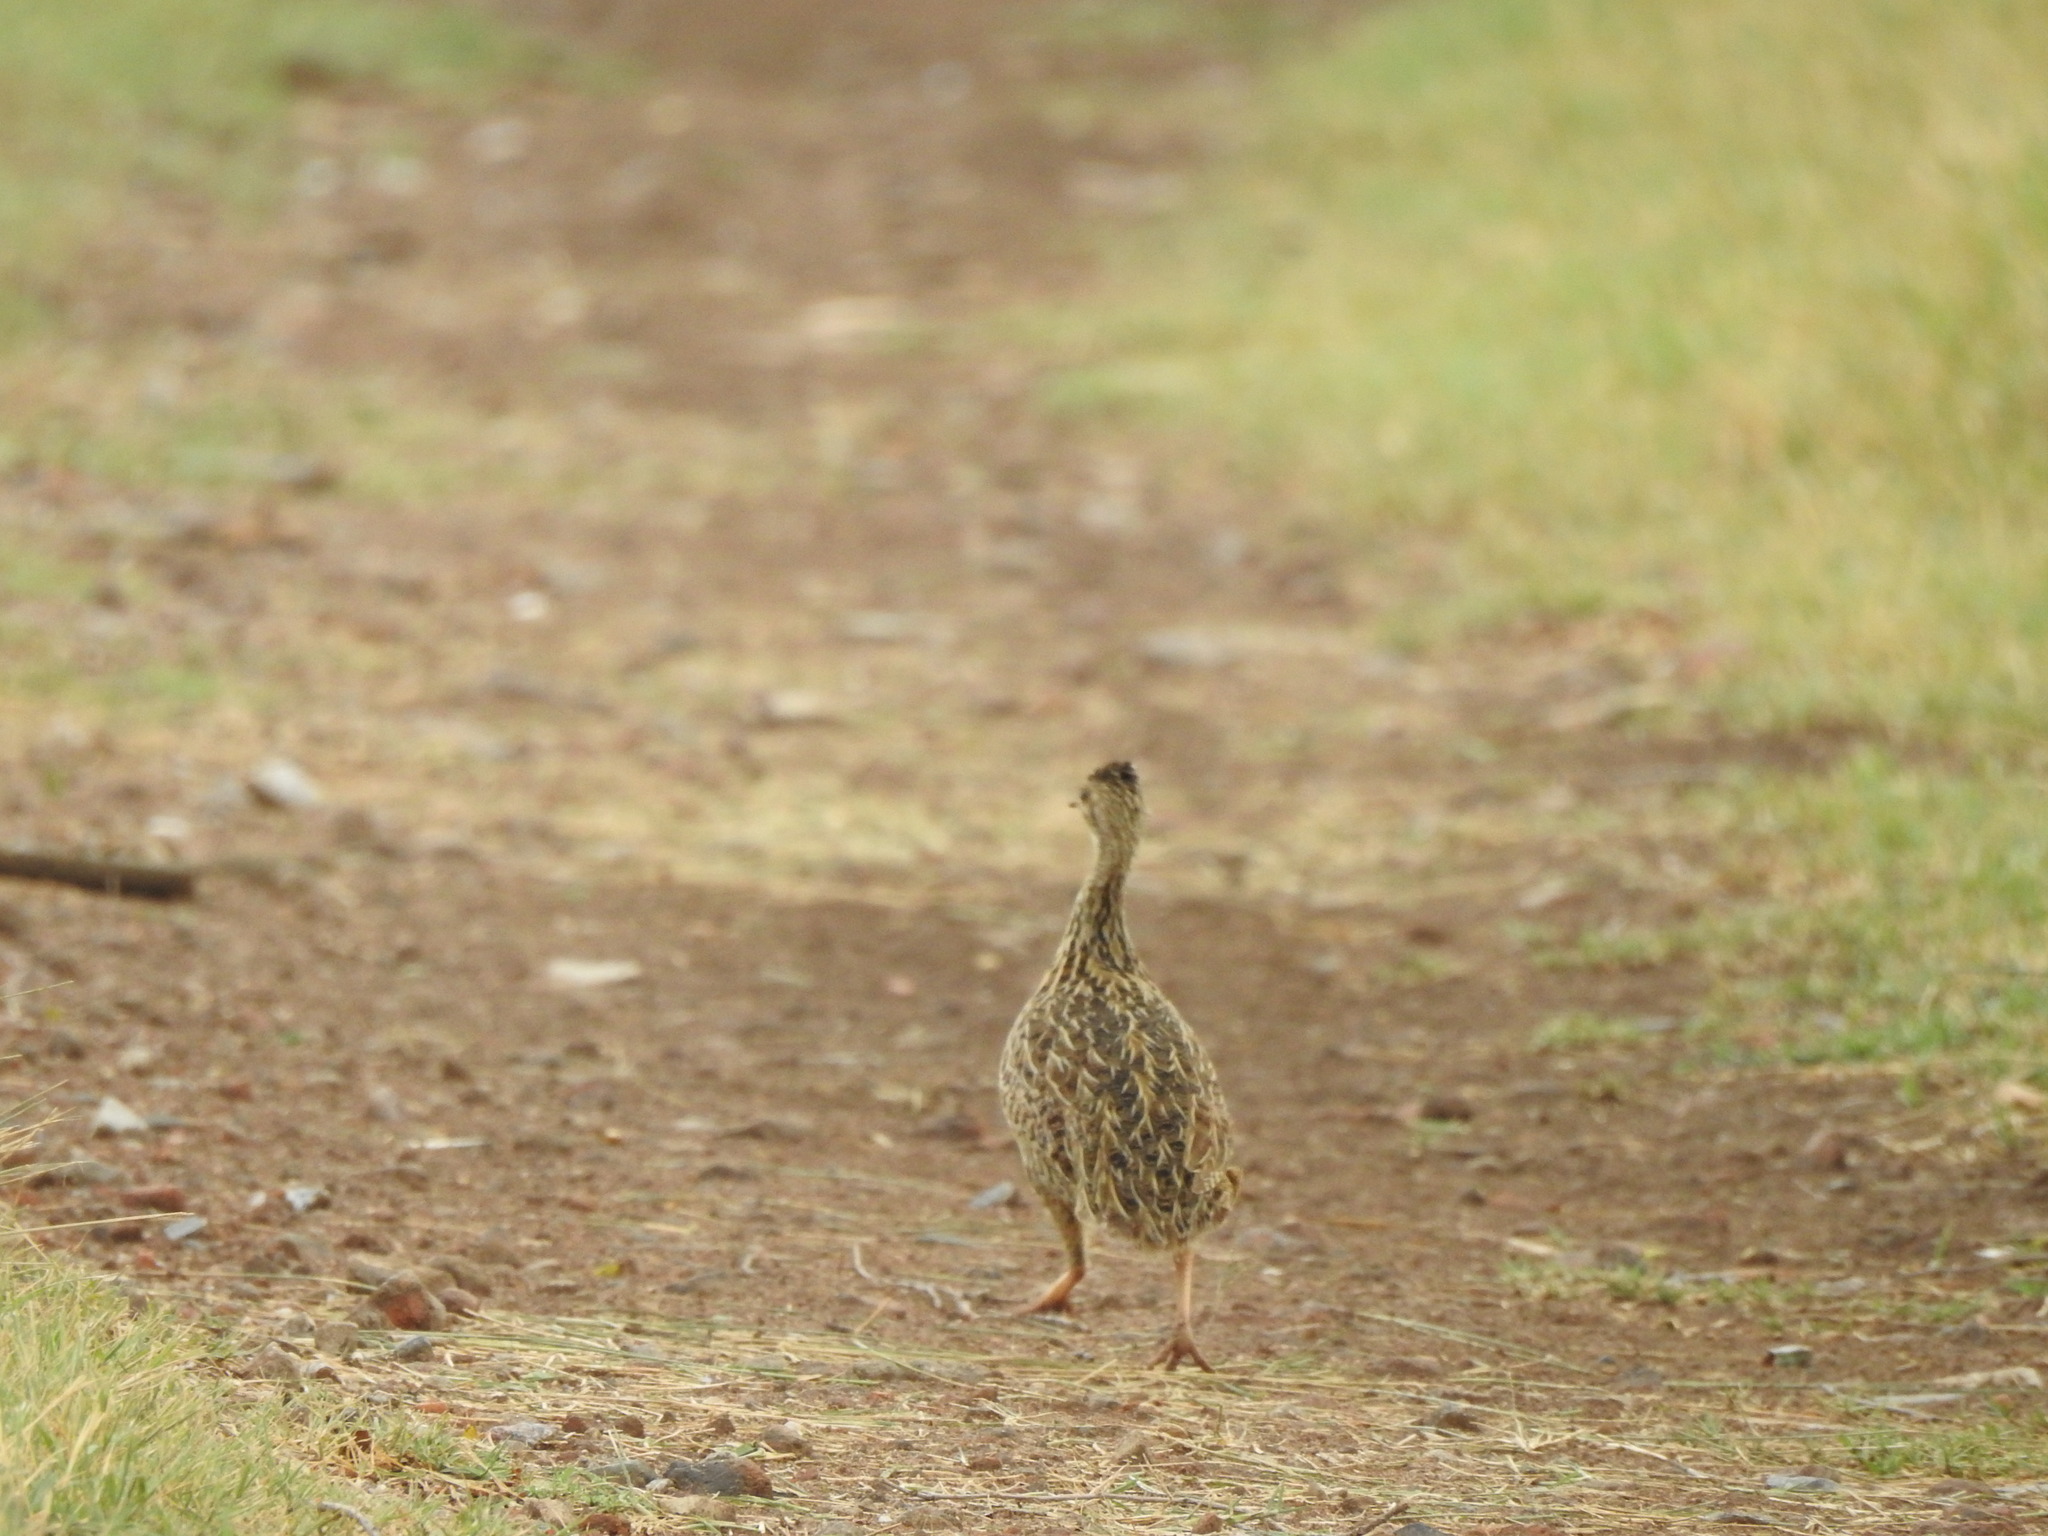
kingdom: Animalia
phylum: Chordata
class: Aves
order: Tinamiformes
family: Tinamidae
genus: Nothura
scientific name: Nothura maculosa
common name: Spotted nothura
